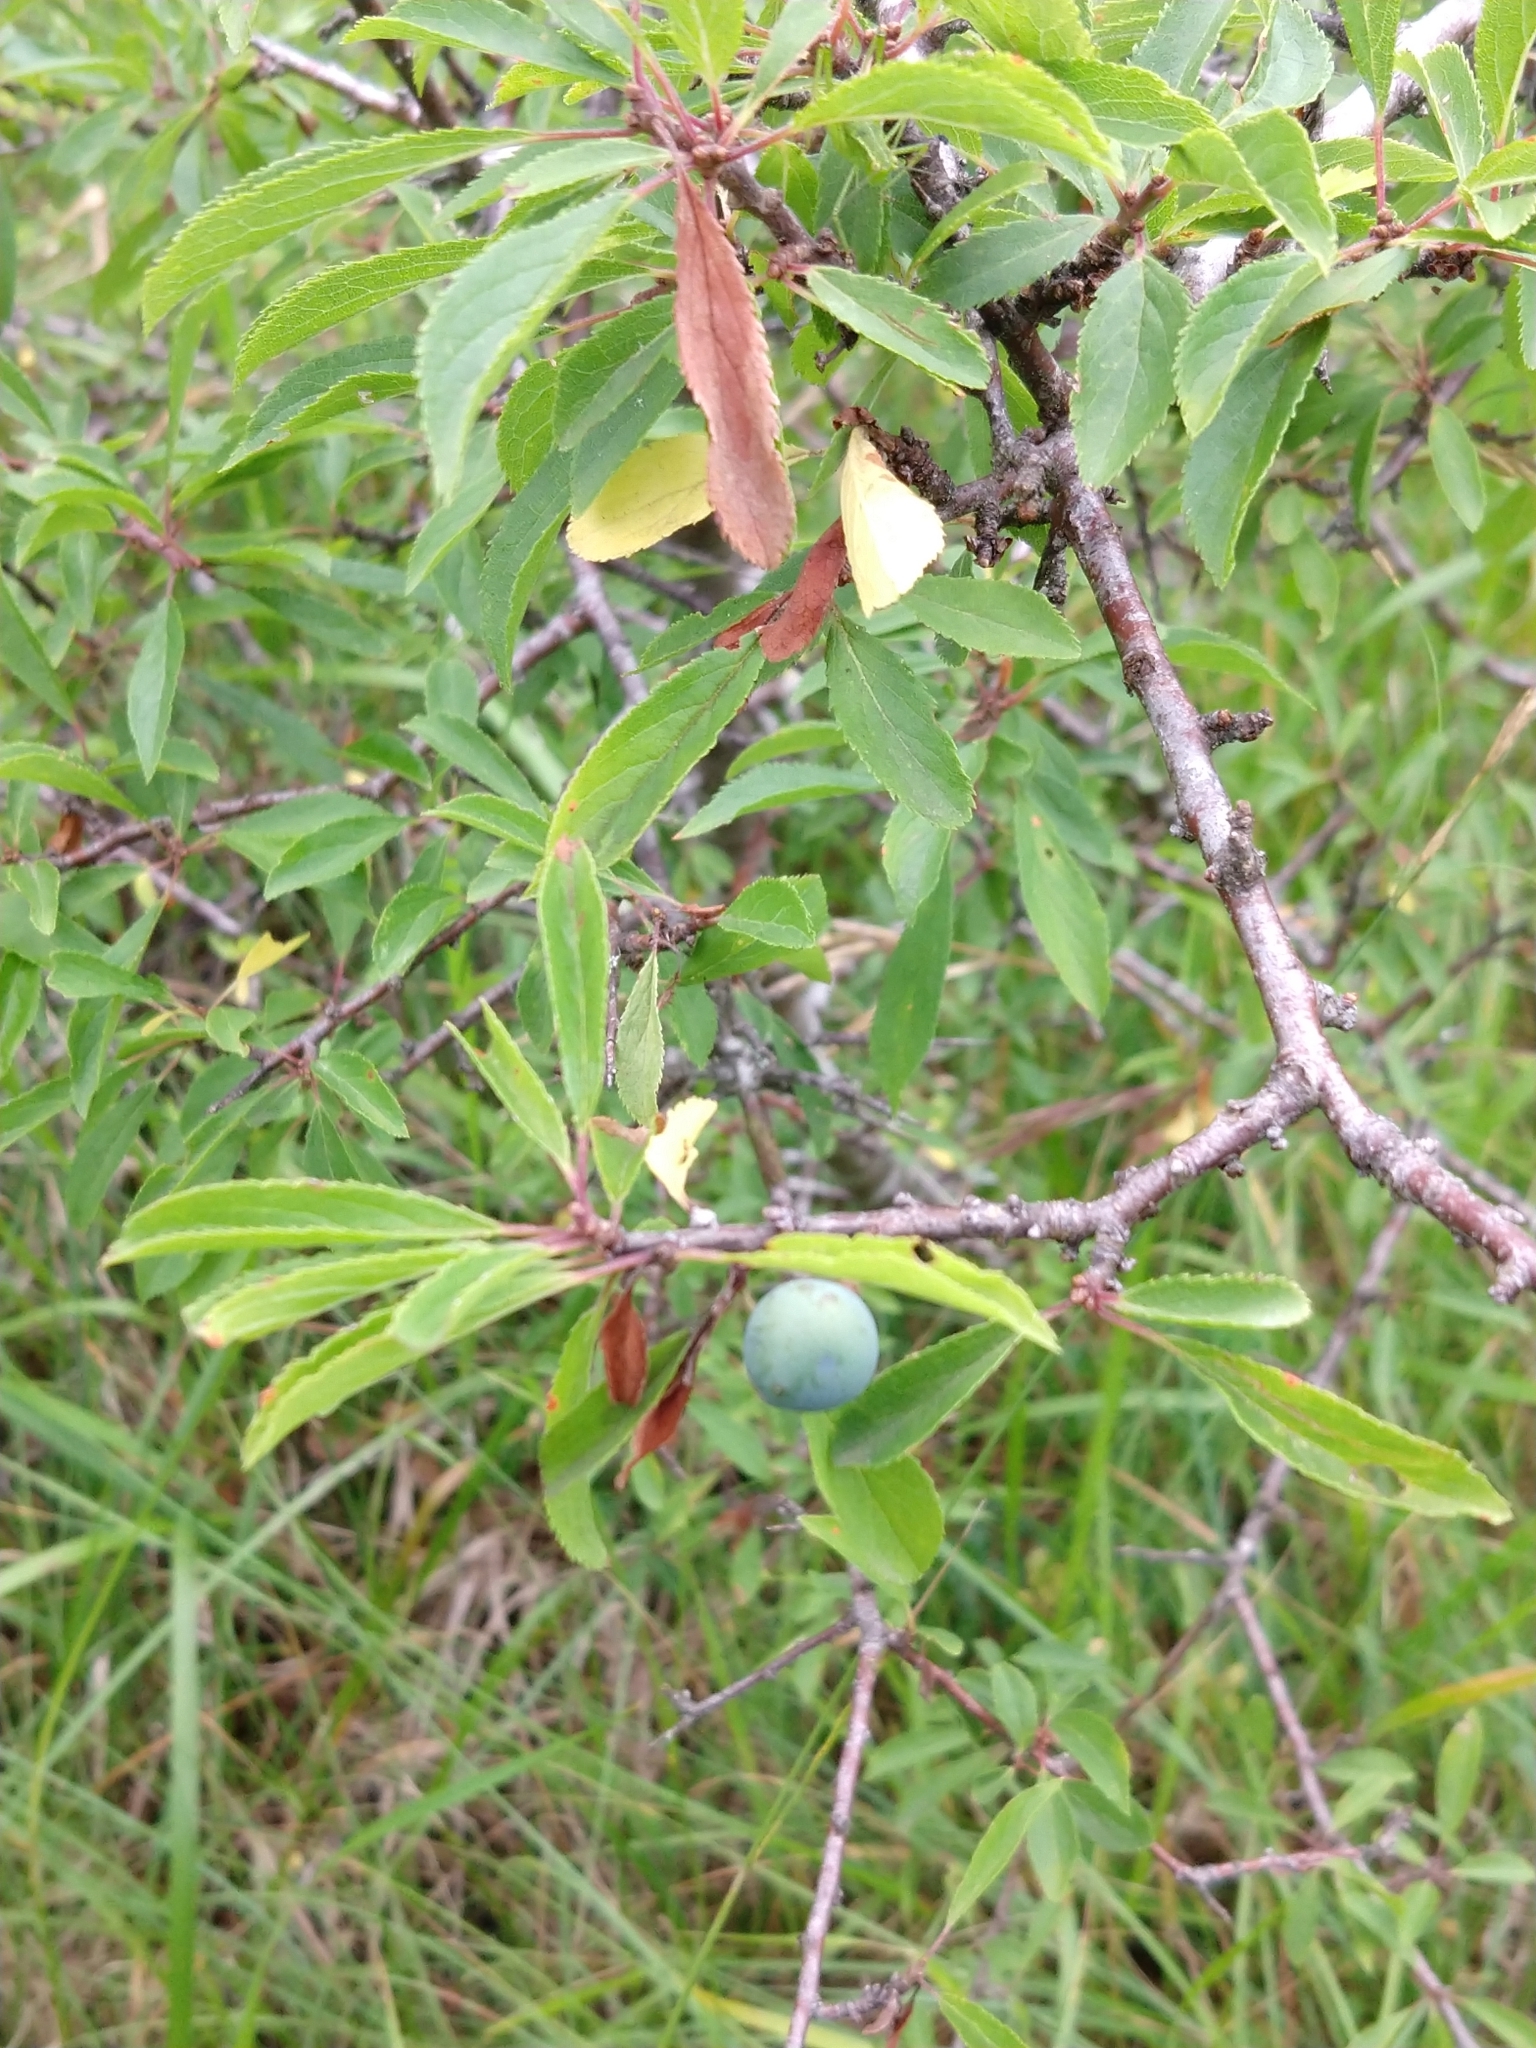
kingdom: Plantae
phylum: Tracheophyta
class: Magnoliopsida
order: Rosales
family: Rosaceae
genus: Prunus
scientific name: Prunus spinosa
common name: Blackthorn
